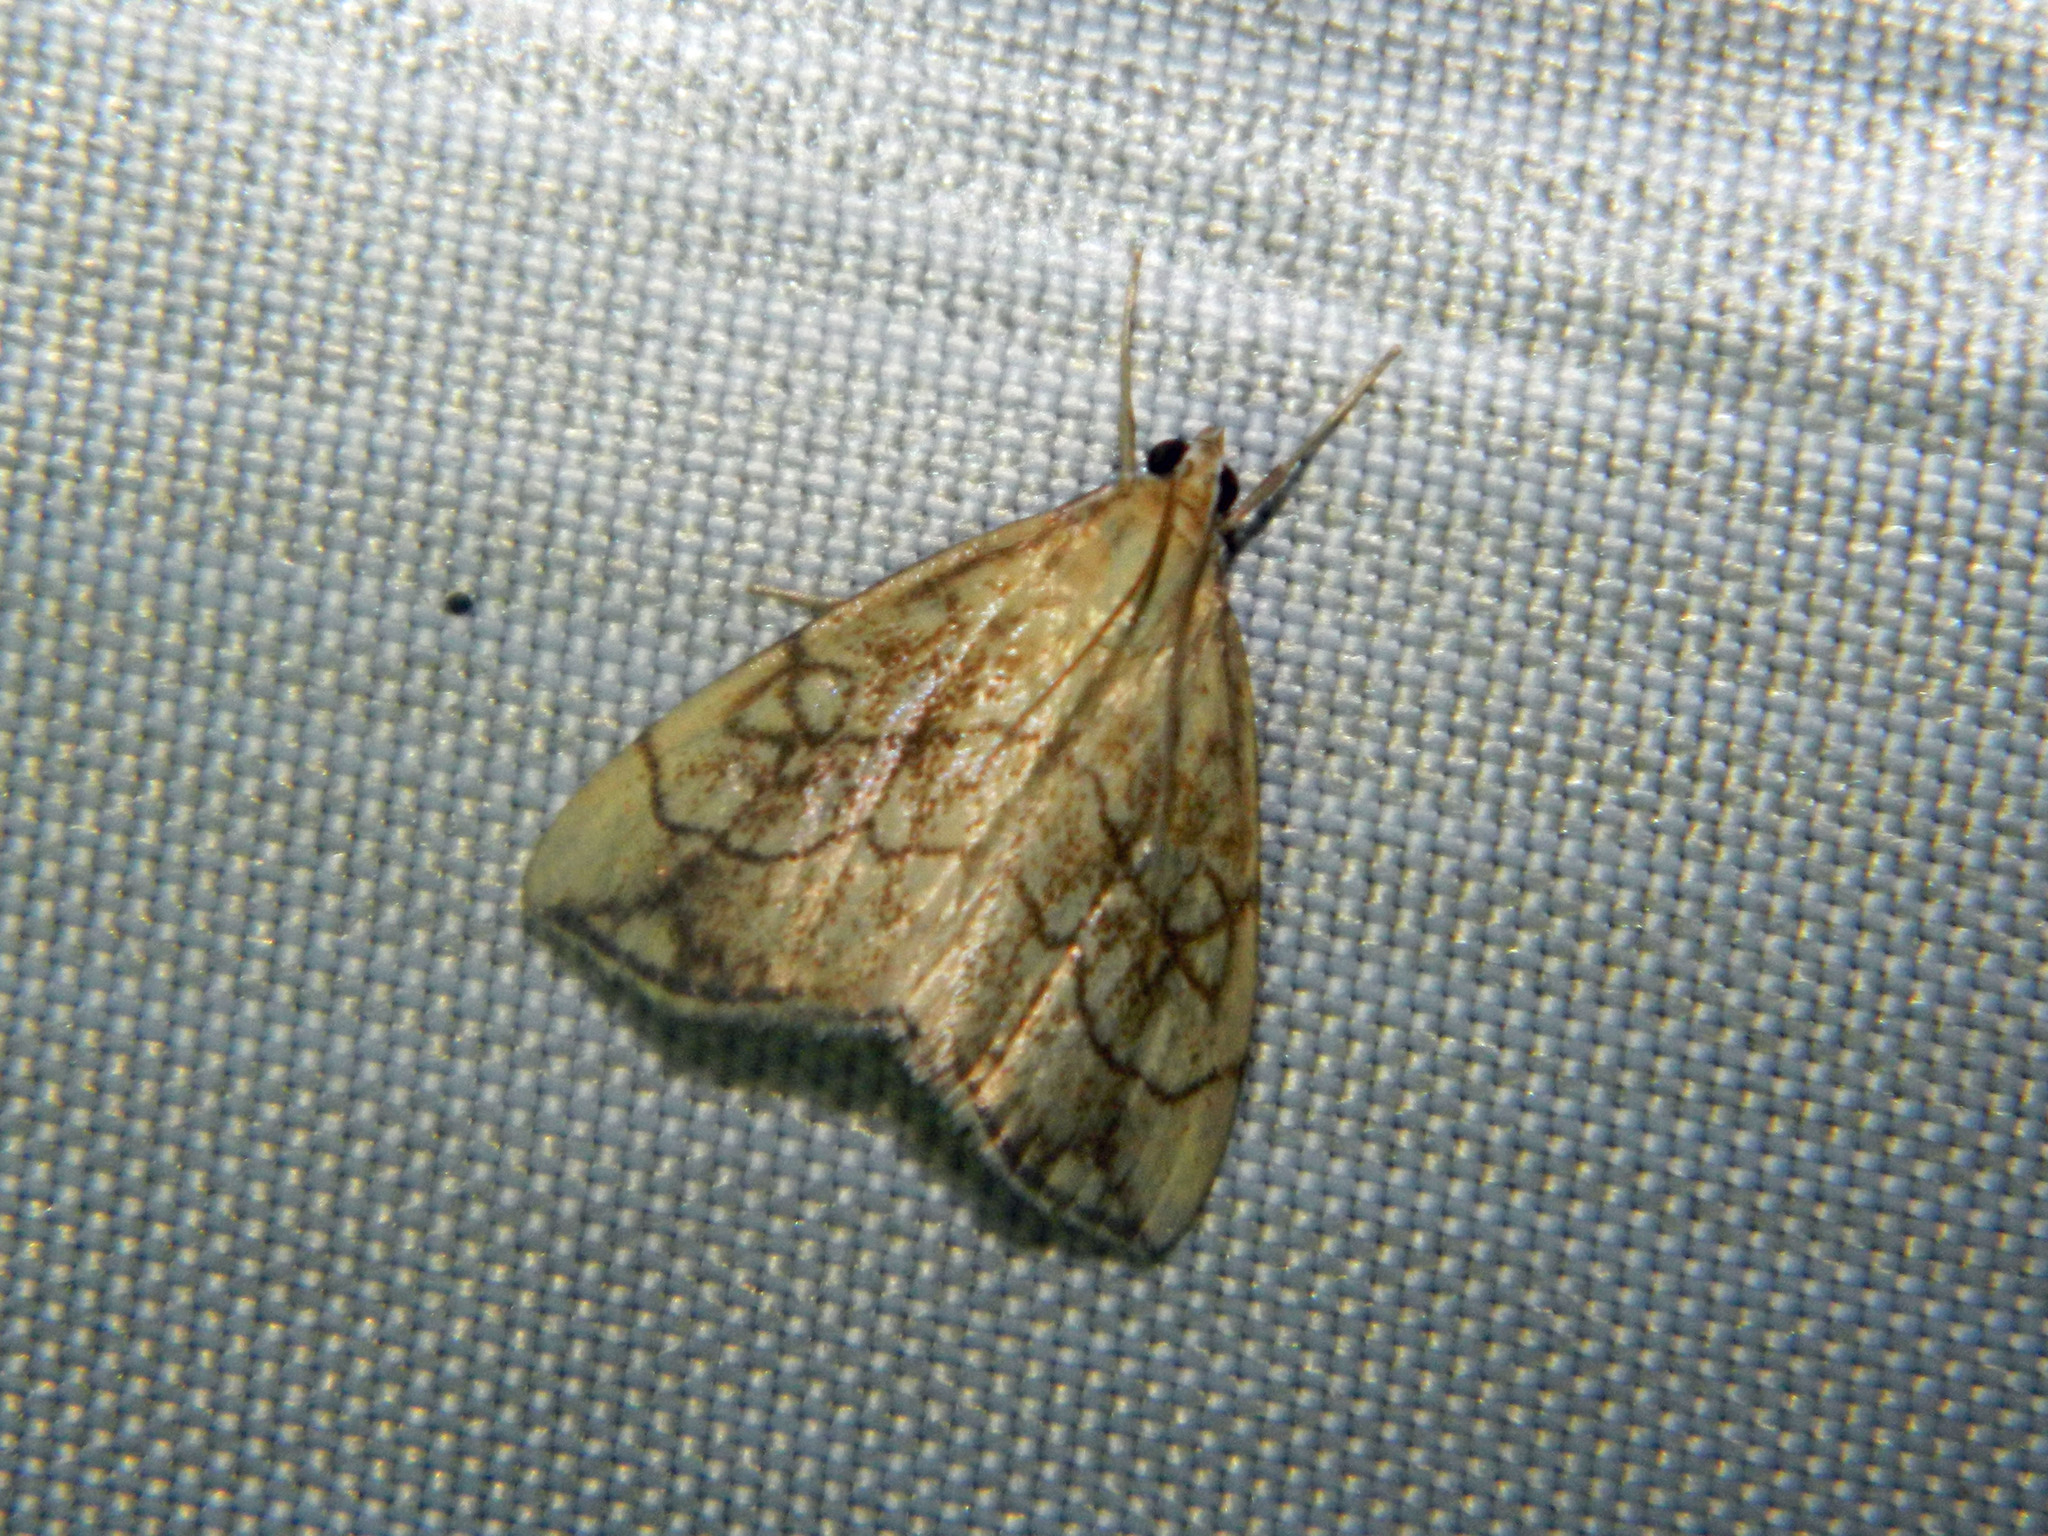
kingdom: Animalia
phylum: Arthropoda
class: Insecta
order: Lepidoptera
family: Crambidae
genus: Evergestis
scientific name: Evergestis pallidata
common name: Chequered pearl
